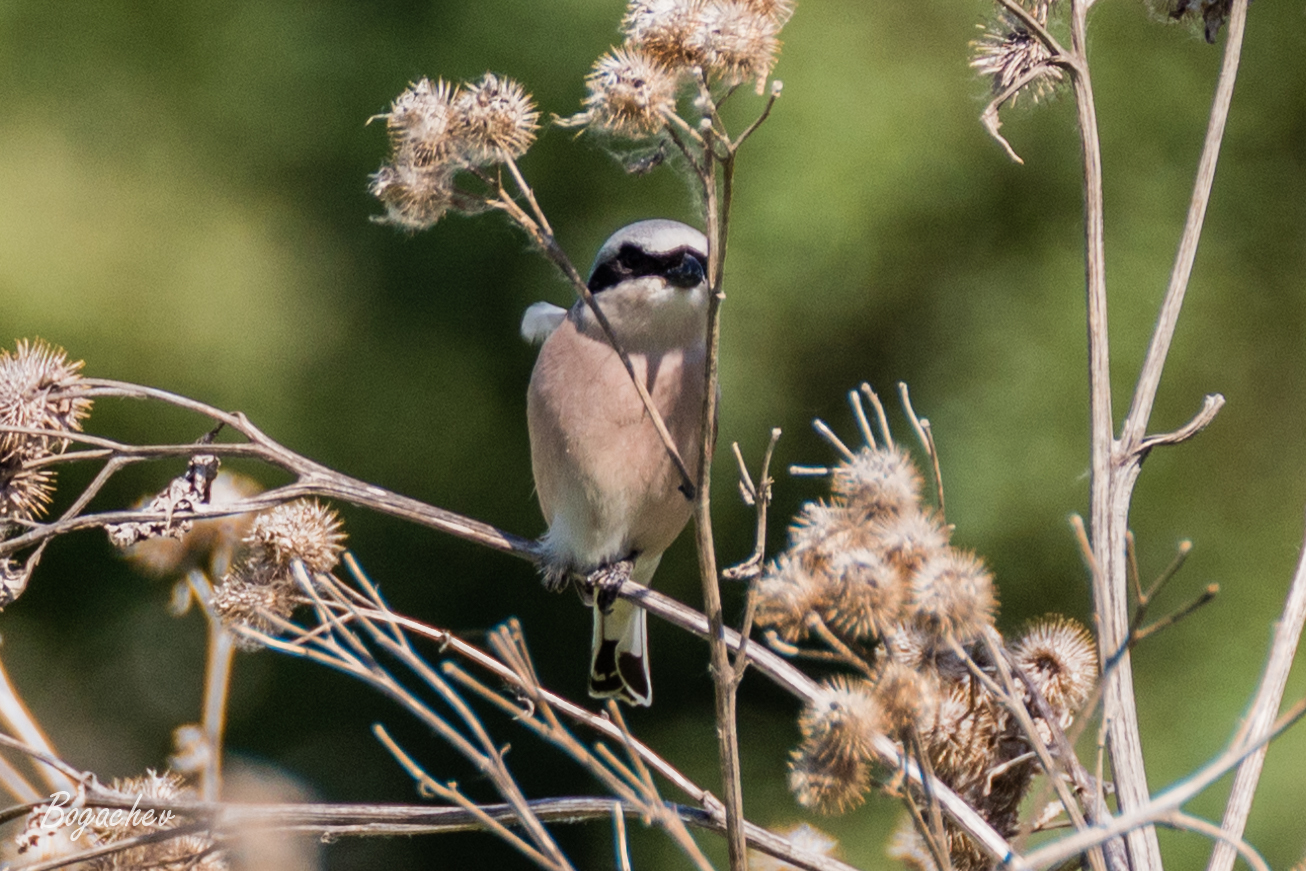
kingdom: Animalia
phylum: Chordata
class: Aves
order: Passeriformes
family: Laniidae
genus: Lanius
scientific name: Lanius collurio
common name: Red-backed shrike
